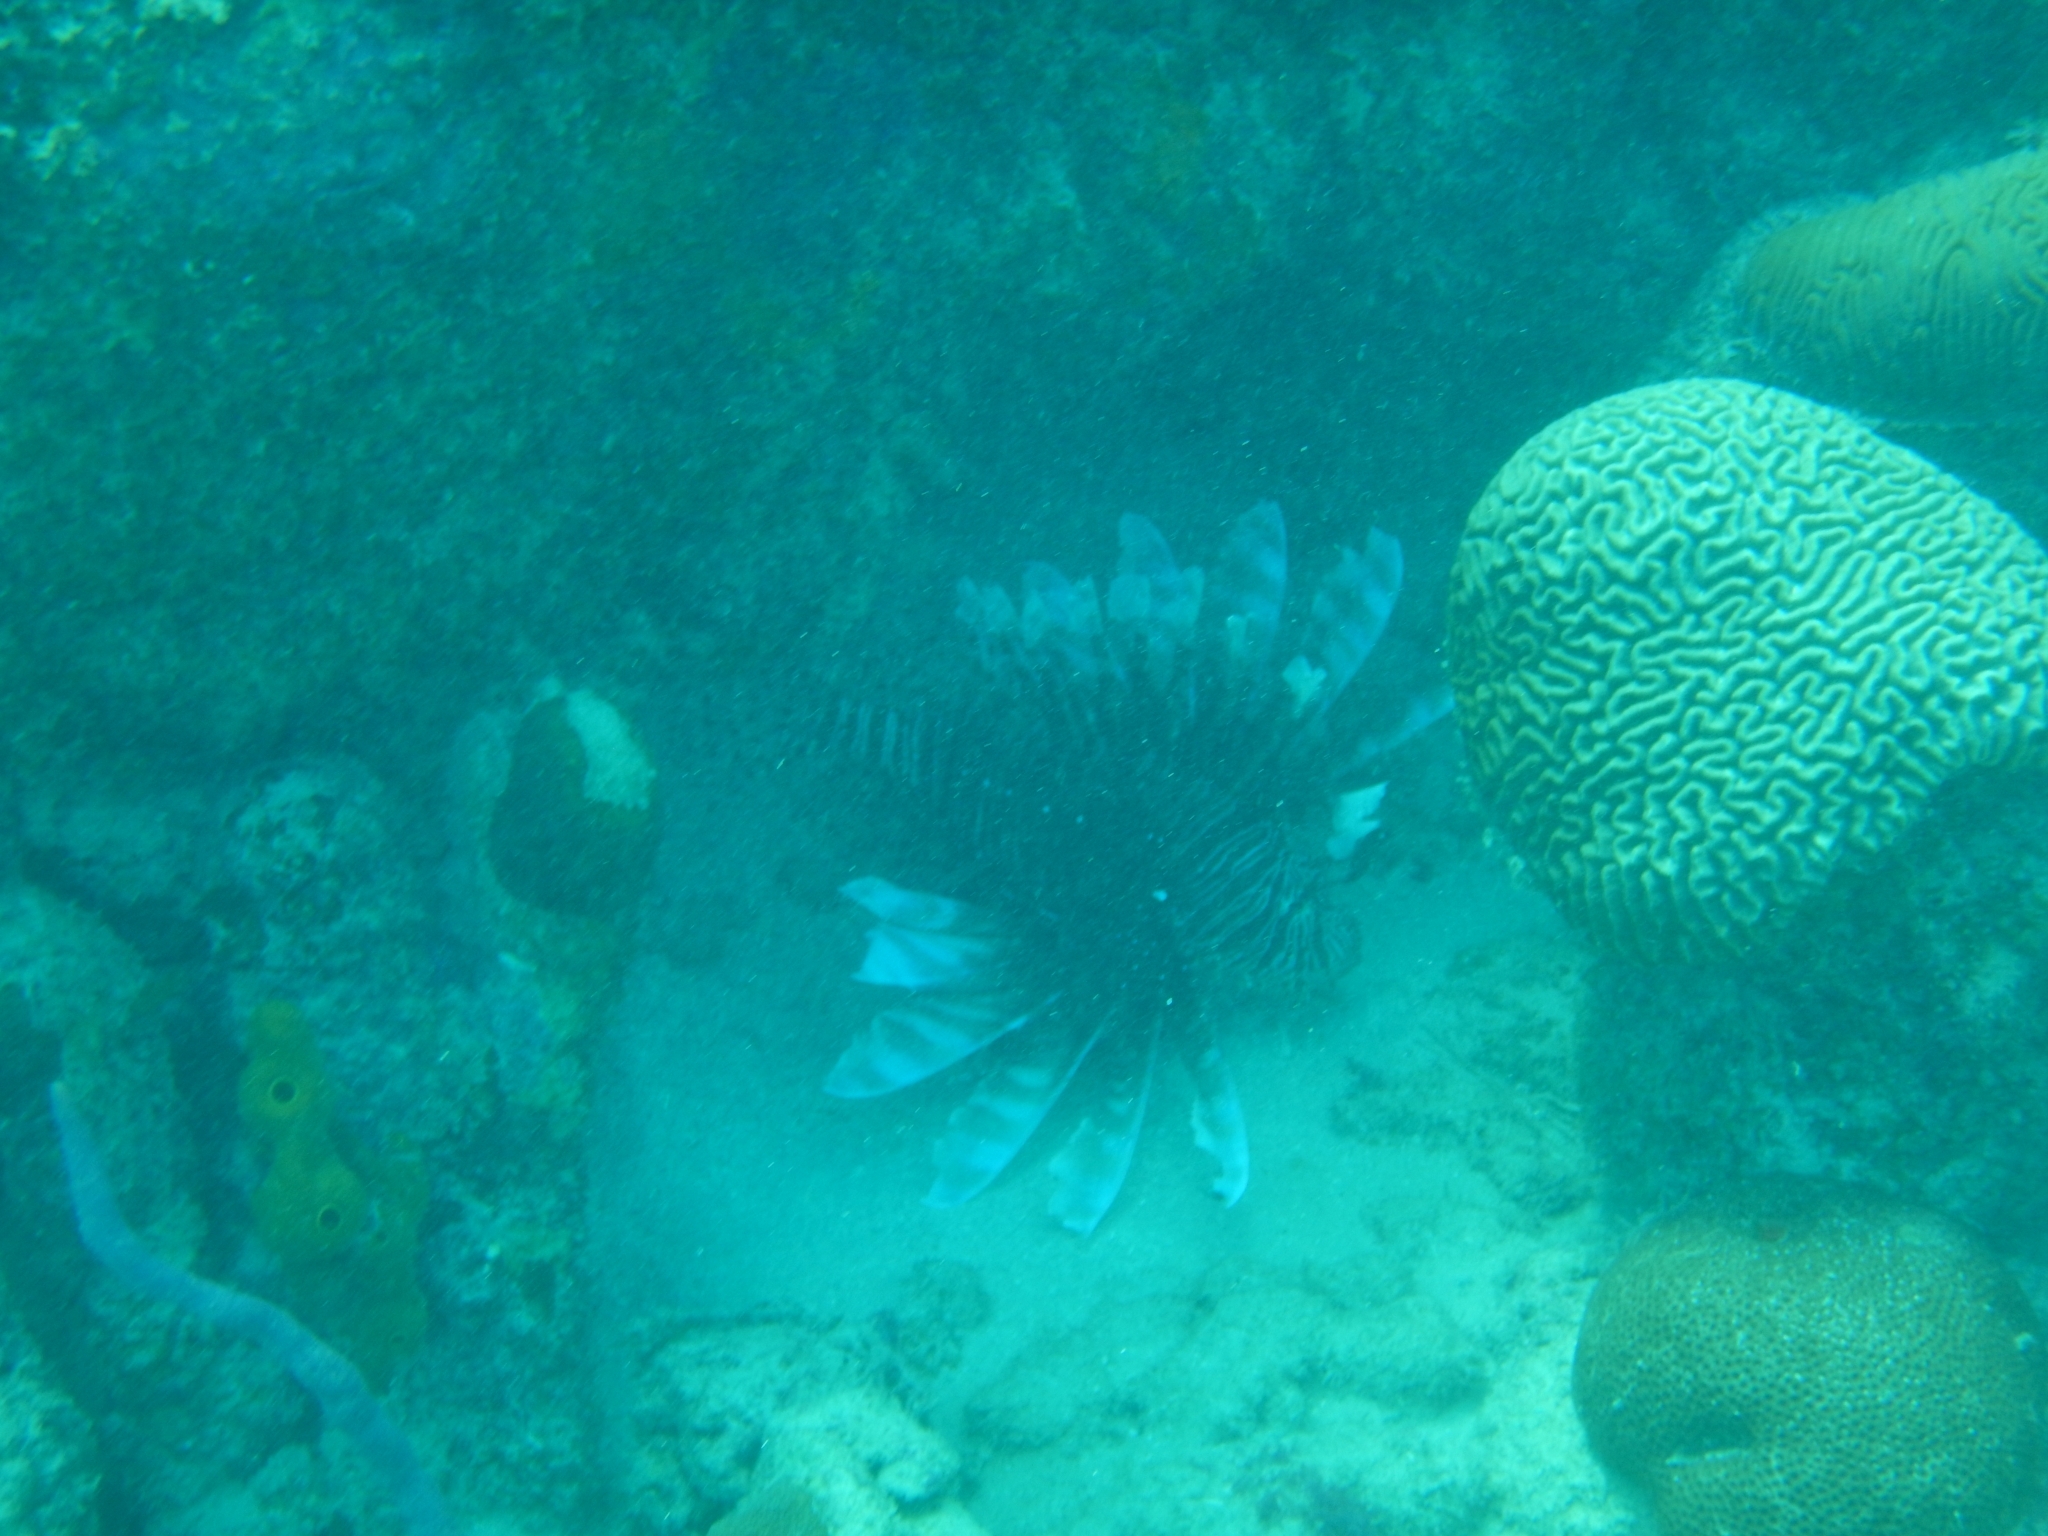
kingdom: Animalia
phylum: Chordata
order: Scorpaeniformes
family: Scorpaenidae
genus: Pterois
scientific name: Pterois volitans
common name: Lionfish
